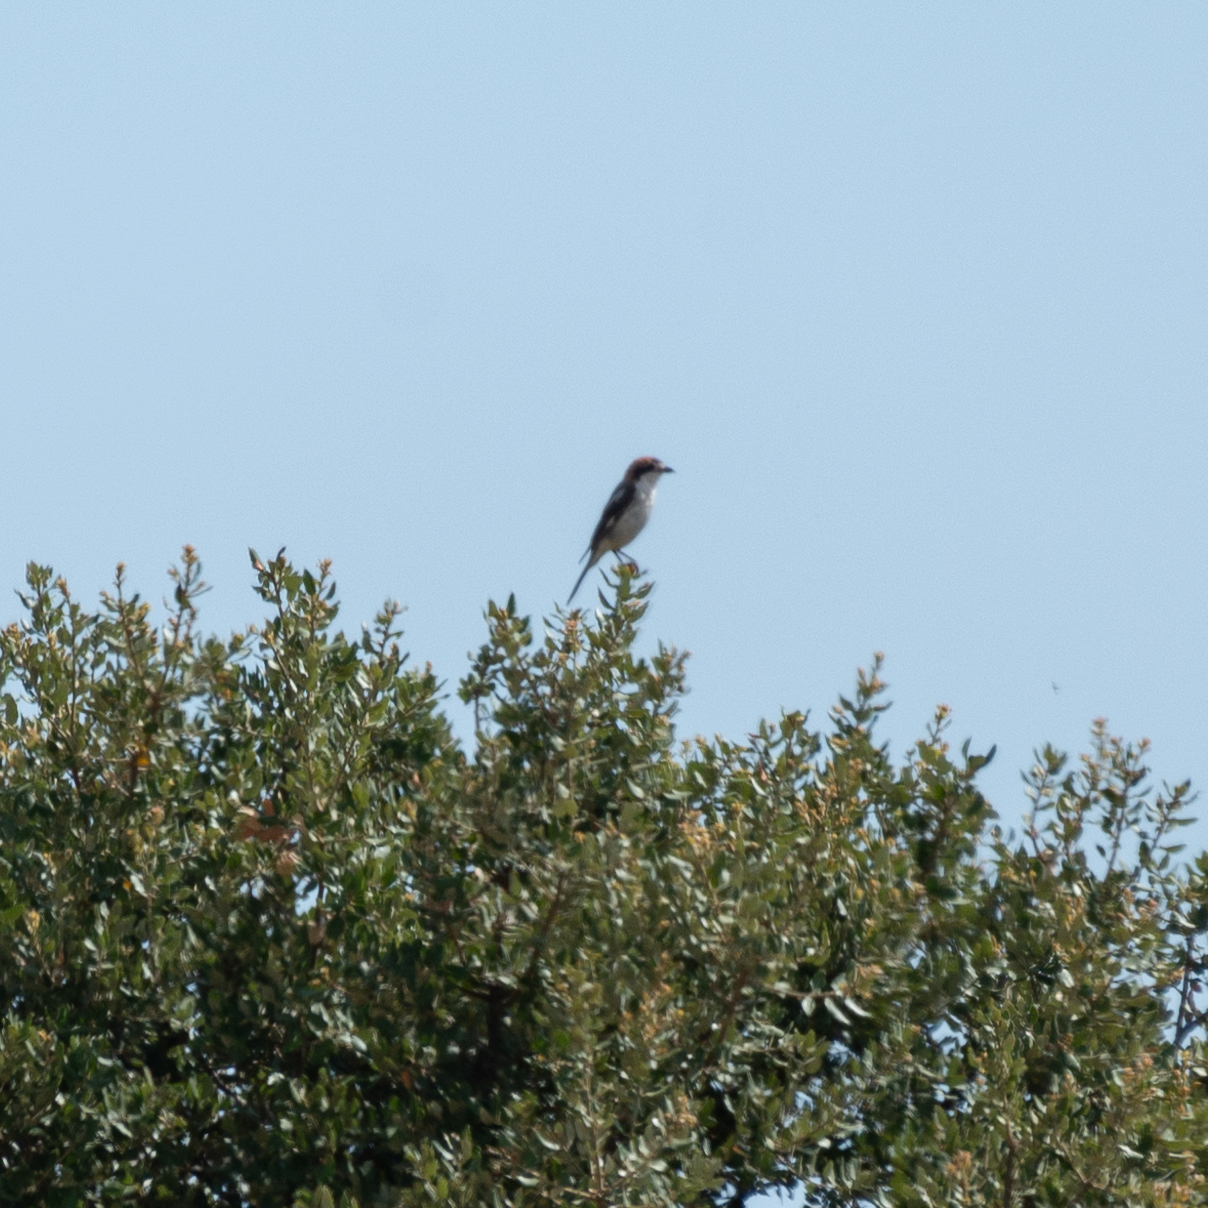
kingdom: Animalia
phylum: Chordata
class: Aves
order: Passeriformes
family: Laniidae
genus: Lanius
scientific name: Lanius senator
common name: Woodchat shrike
